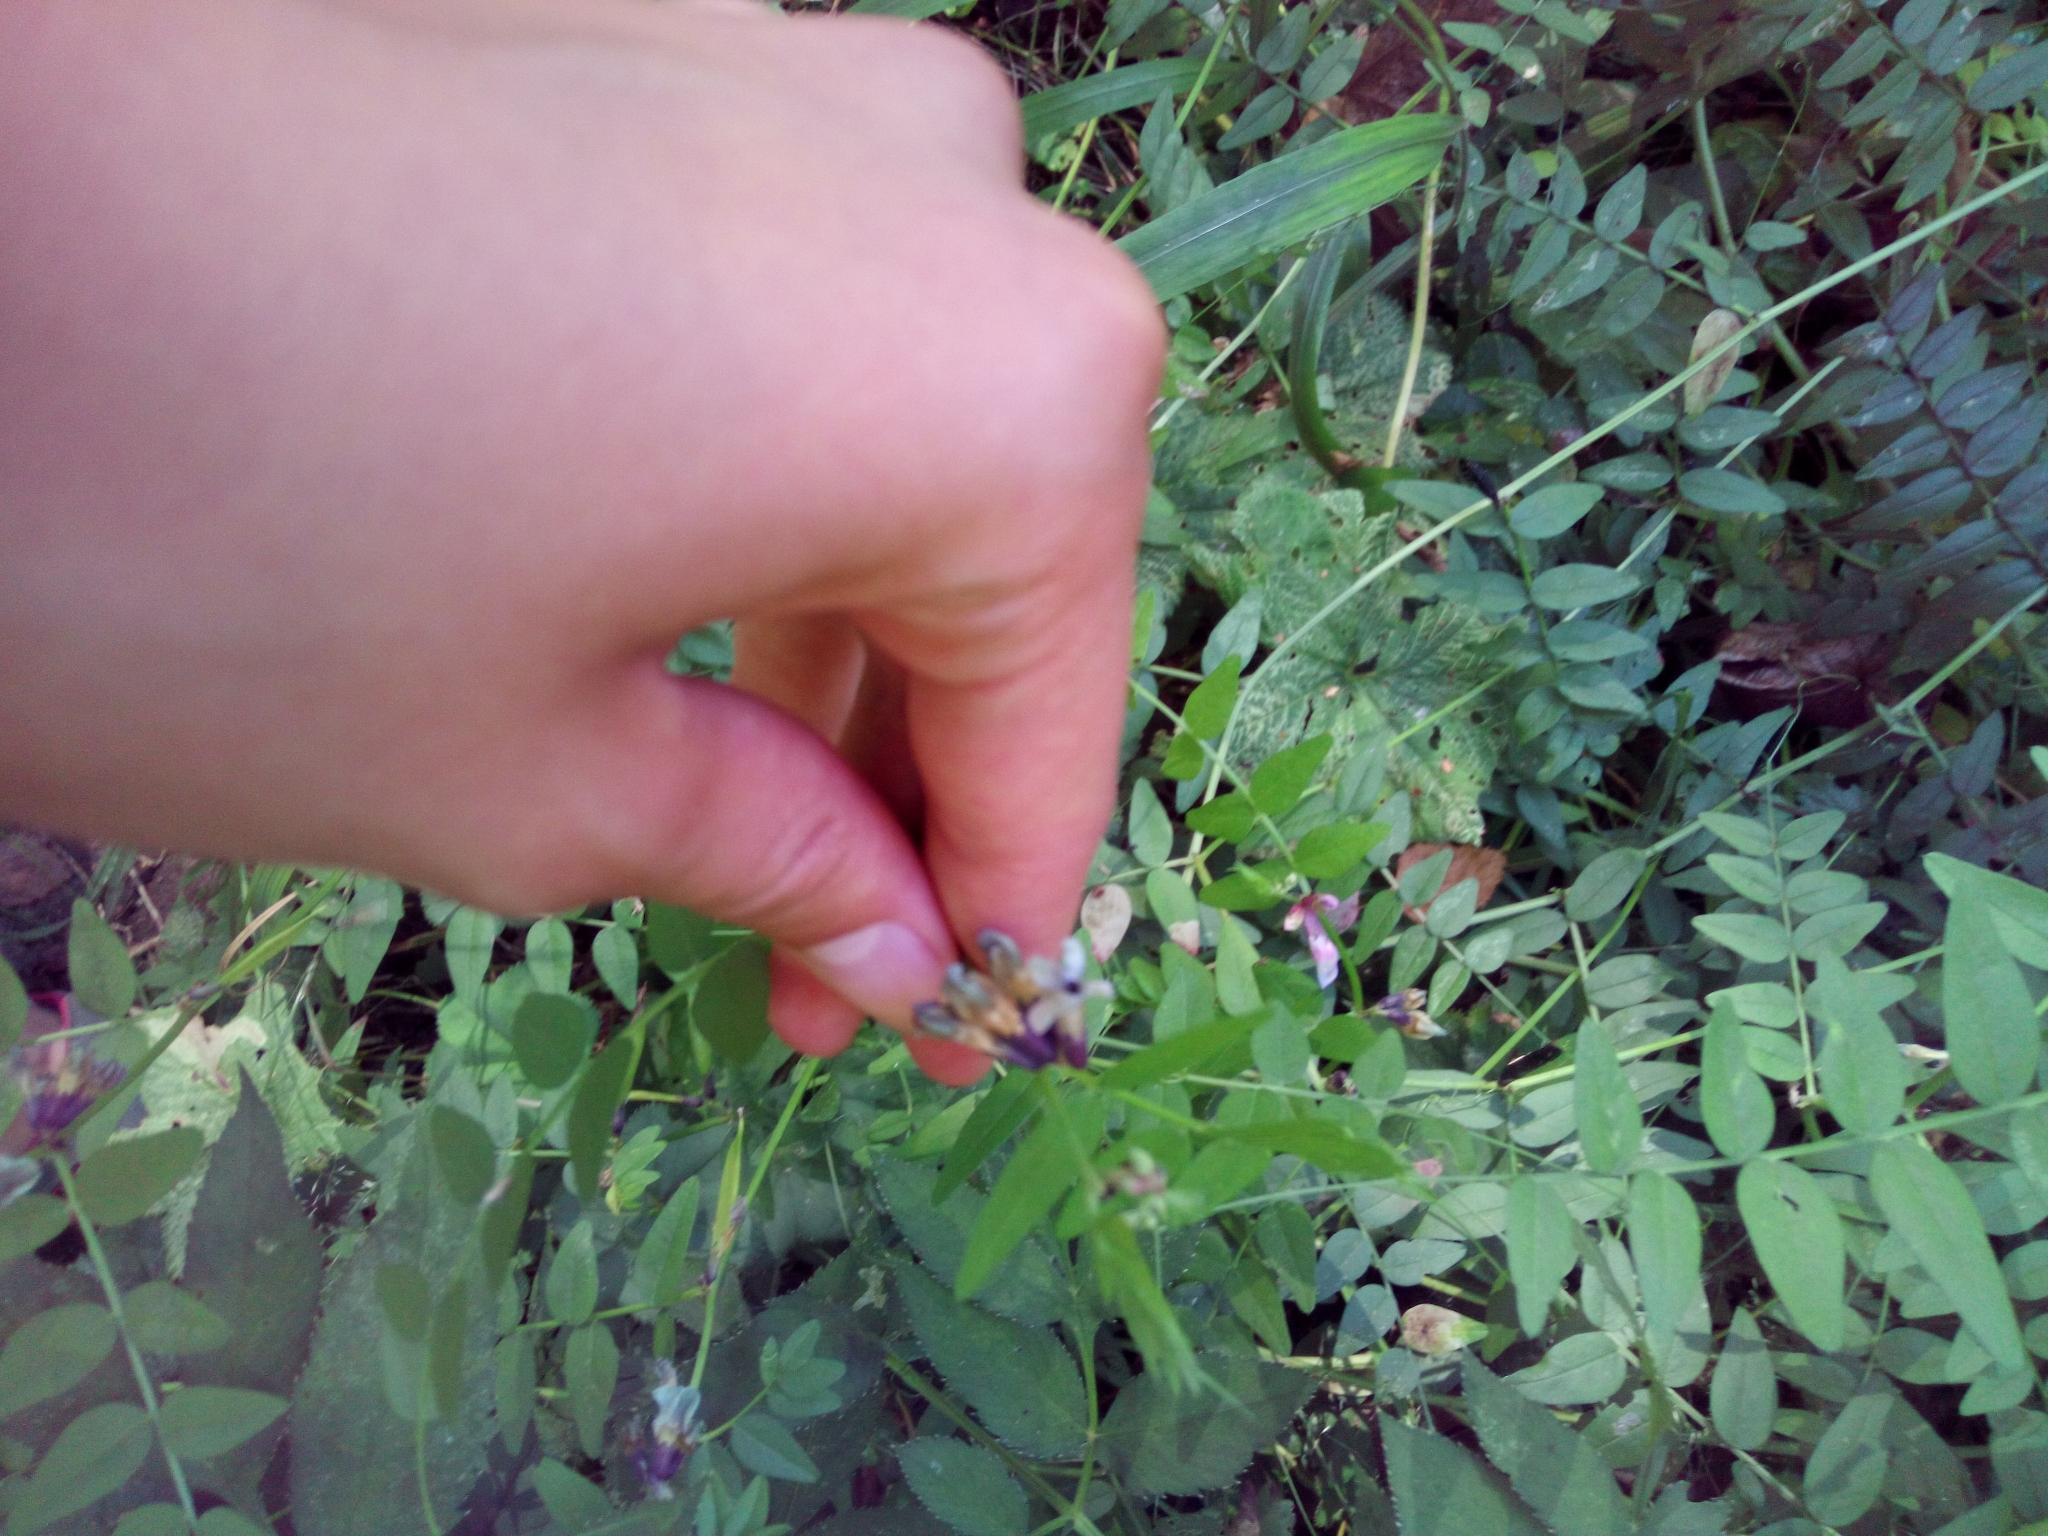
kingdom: Plantae
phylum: Tracheophyta
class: Magnoliopsida
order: Fabales
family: Fabaceae
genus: Vicia
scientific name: Vicia sepium
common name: Bush vetch
